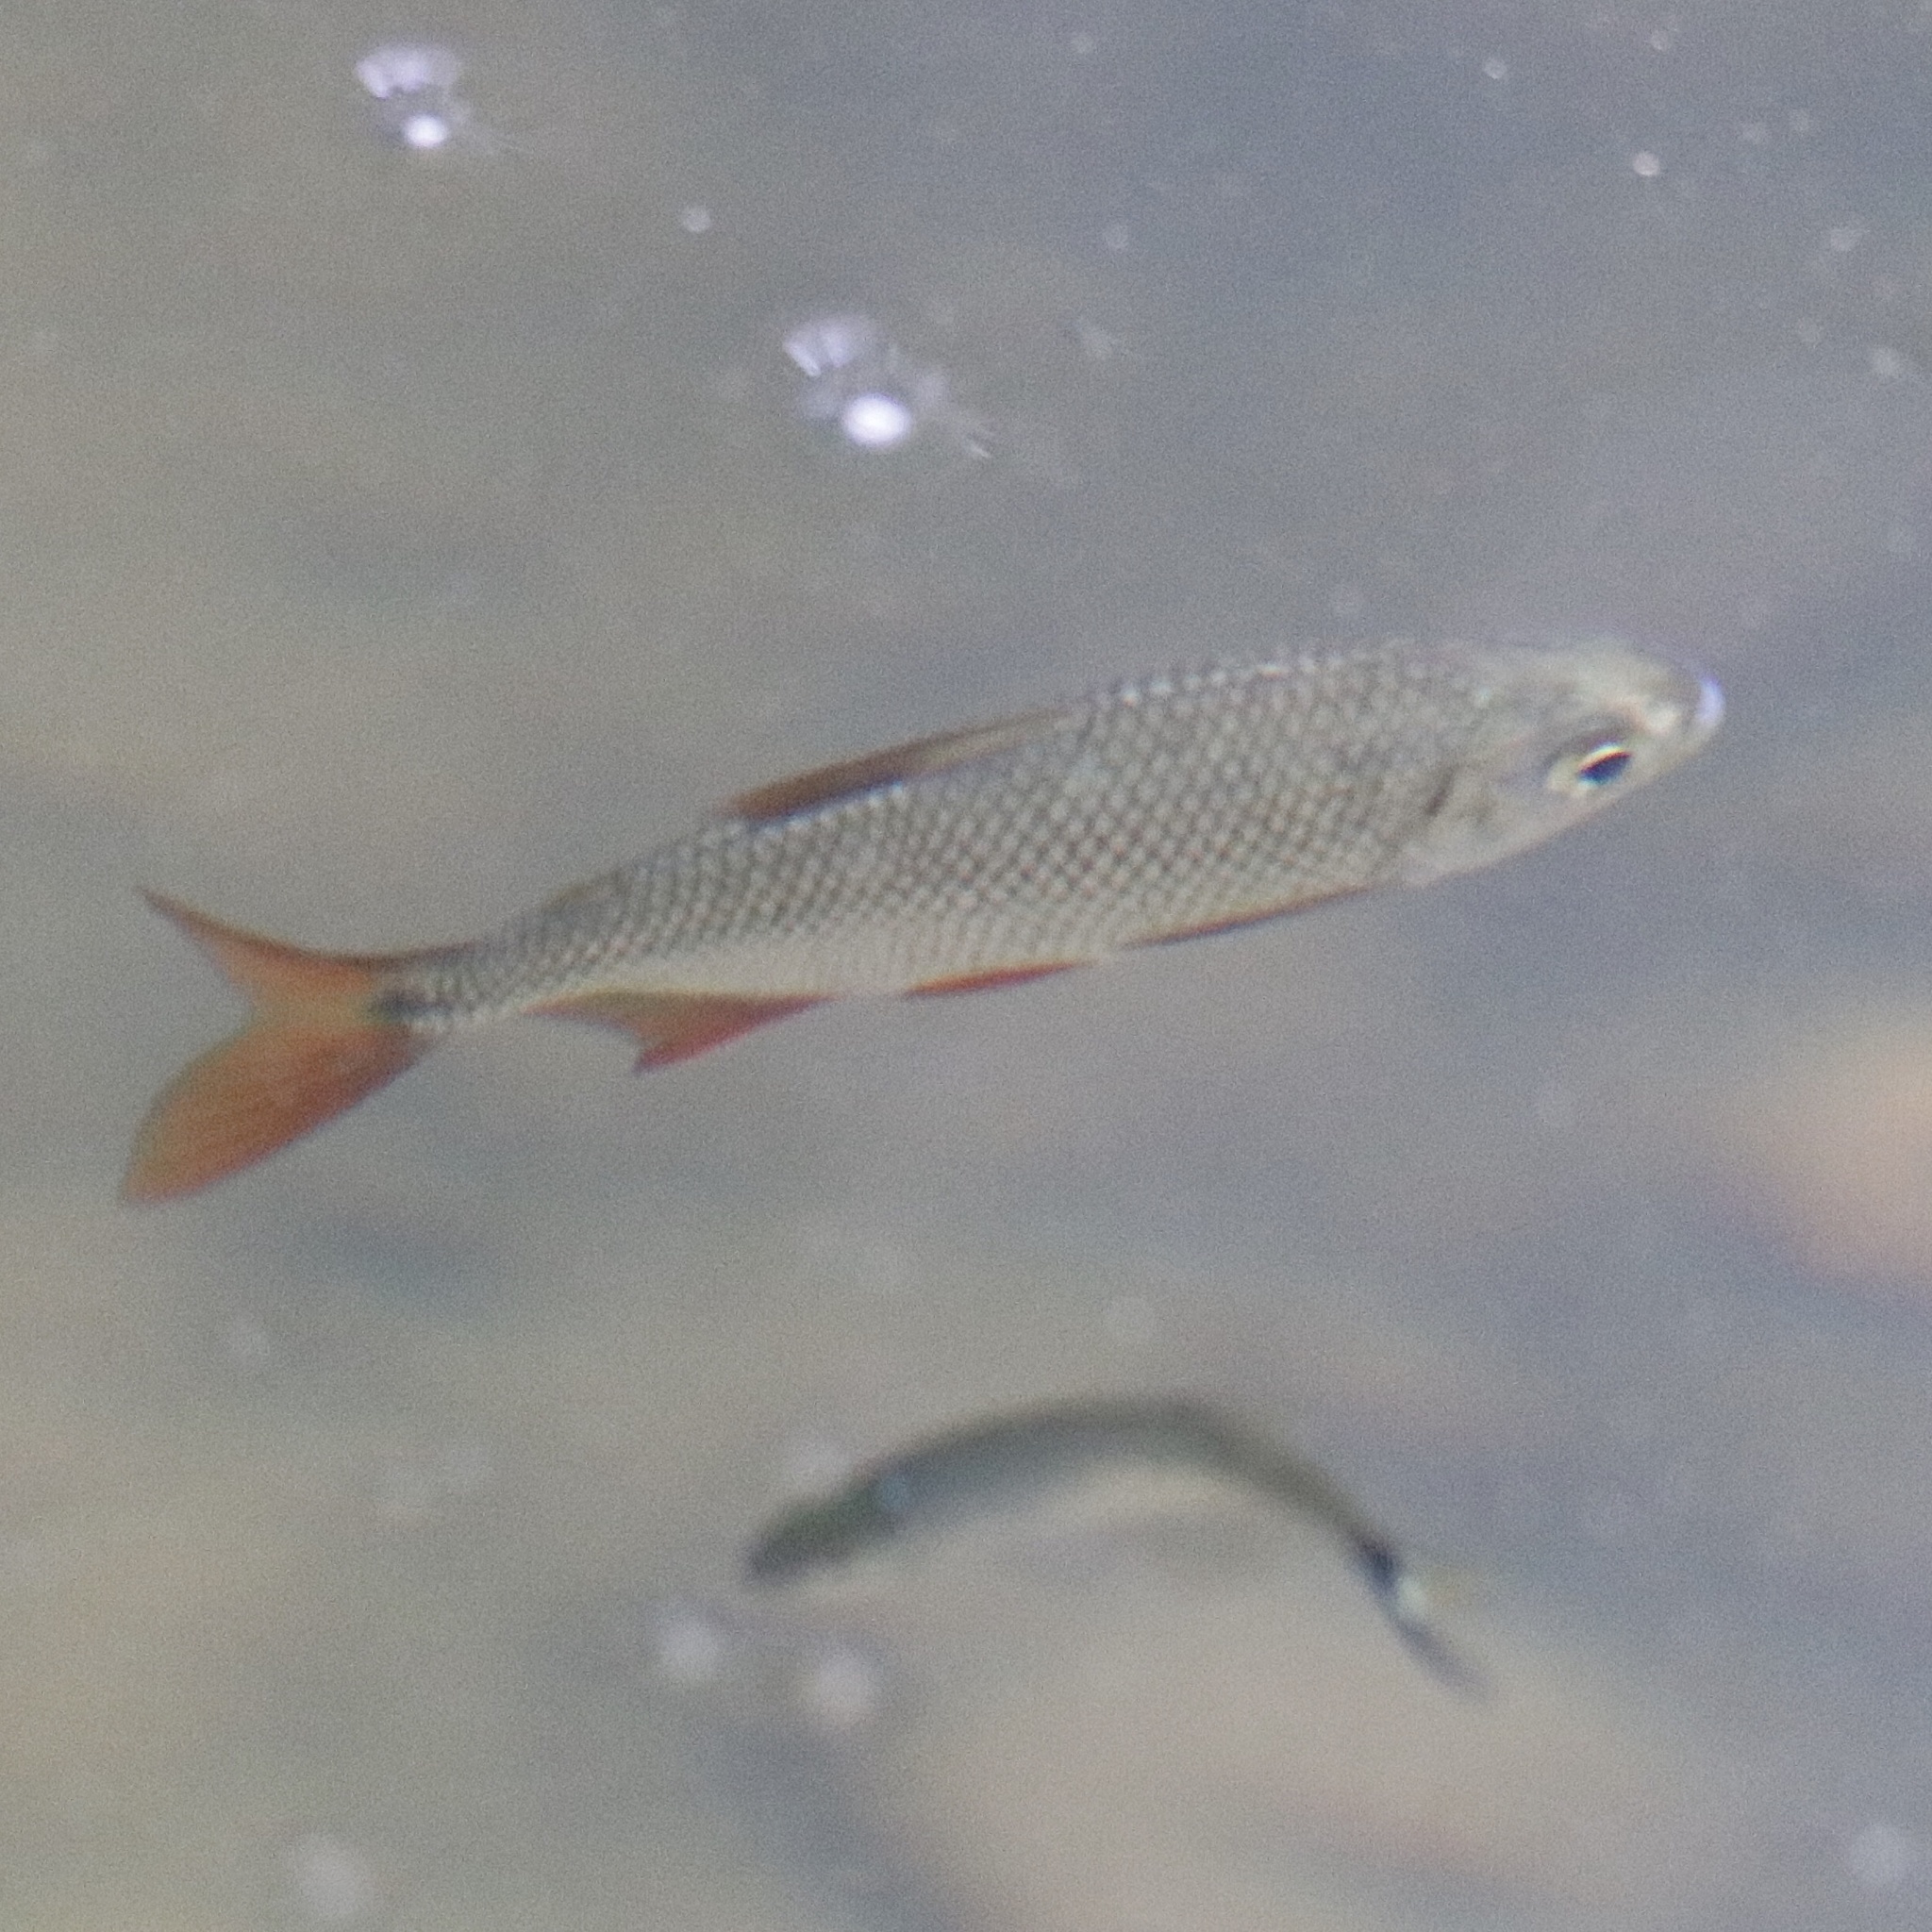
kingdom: Animalia
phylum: Chordata
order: Characiformes
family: Characidae
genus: Astyanax
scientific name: Astyanax fasciatus
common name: Banded astyanax
